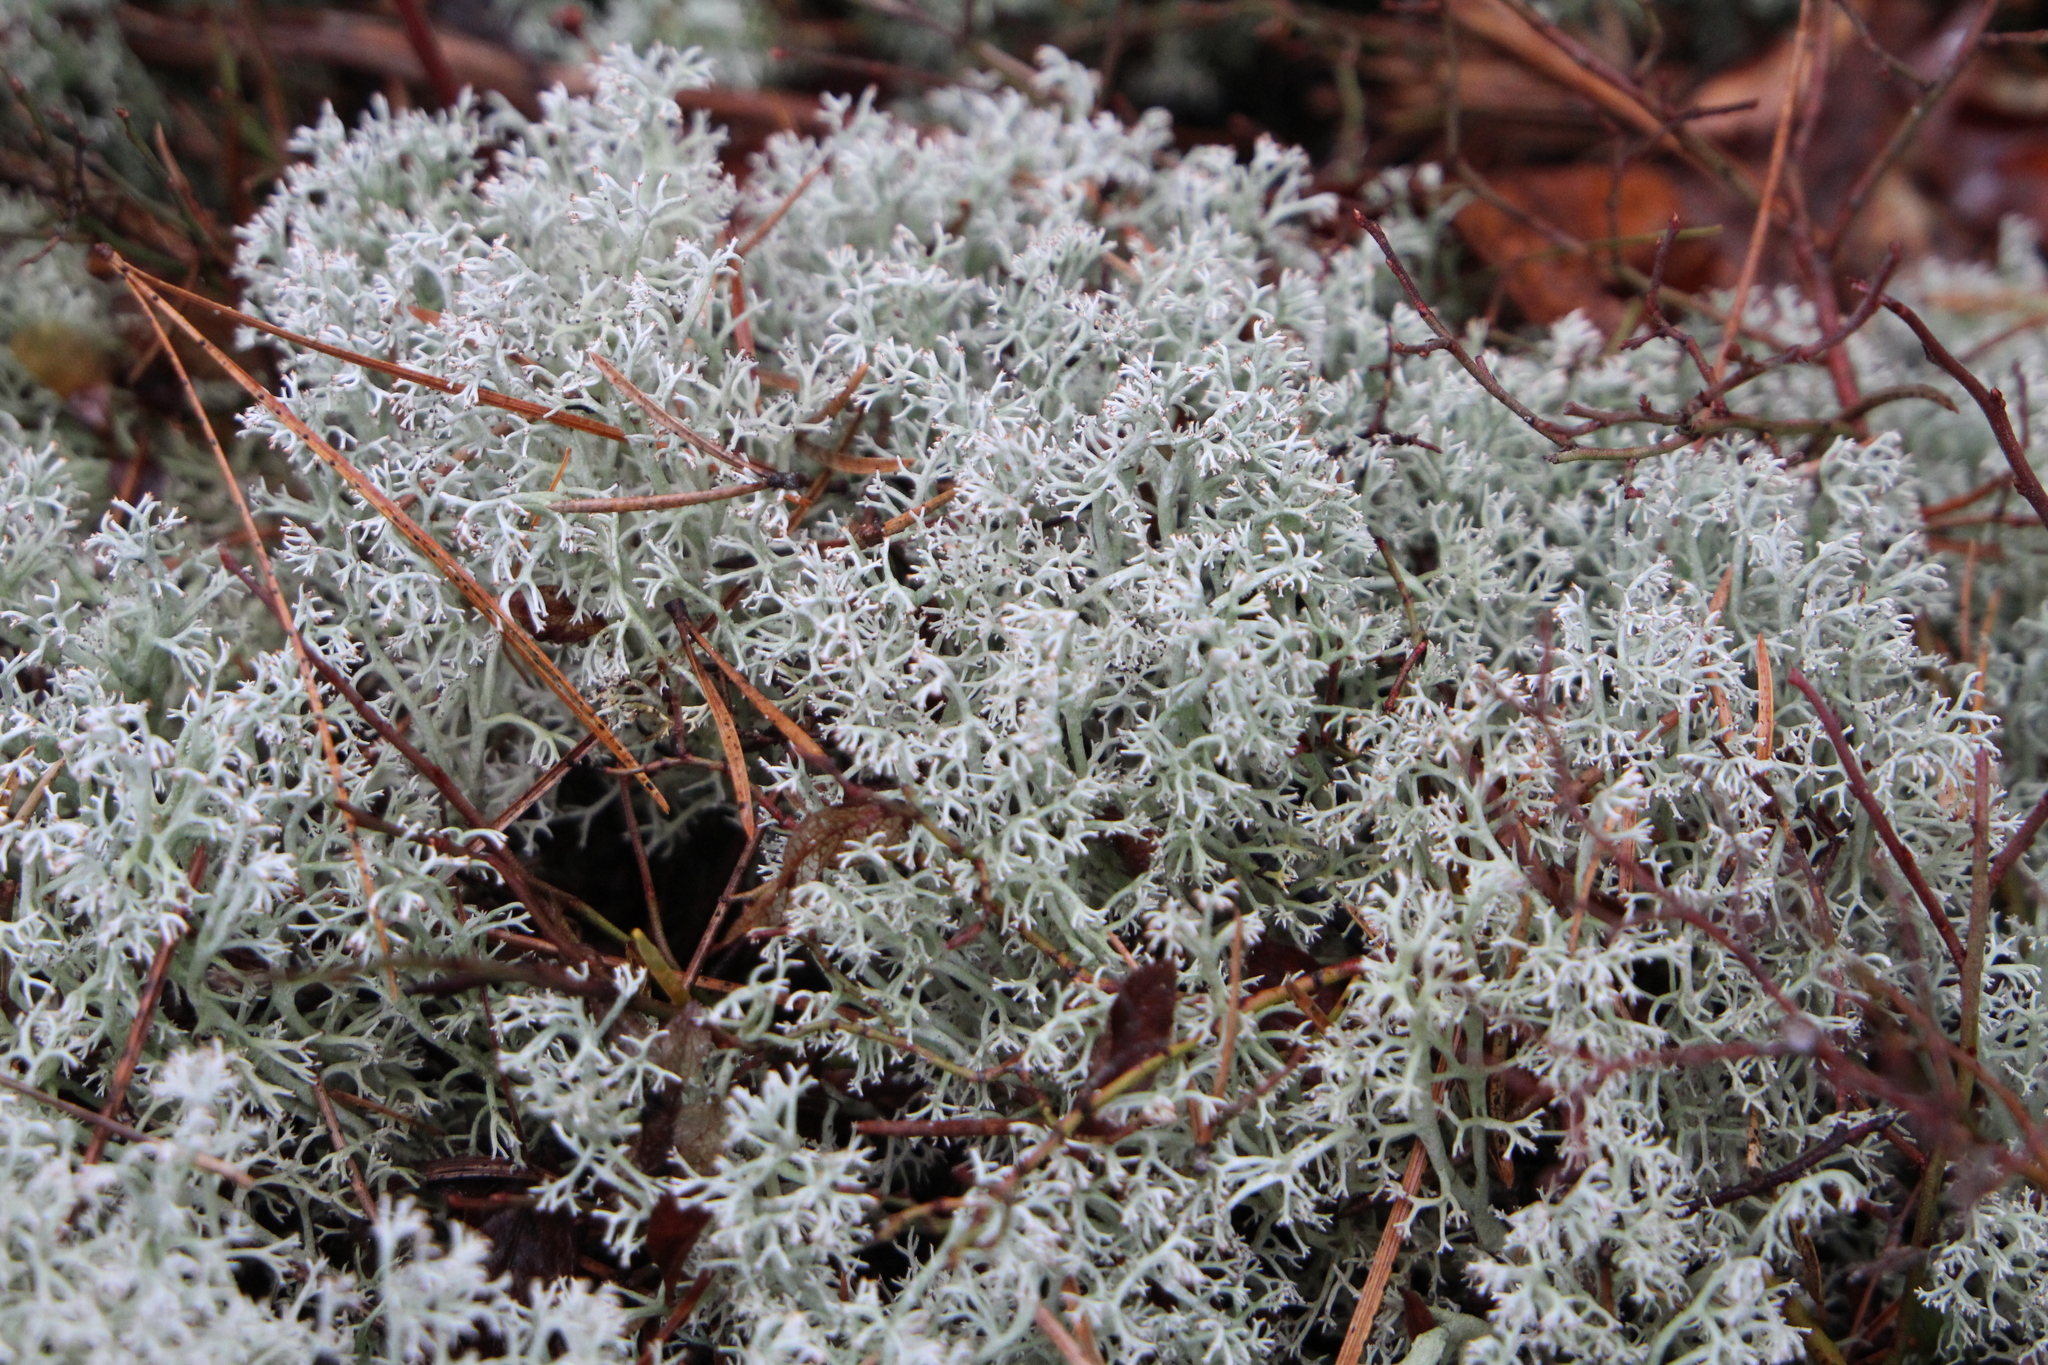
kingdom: Fungi
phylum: Ascomycota
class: Lecanoromycetes
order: Lecanorales
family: Cladoniaceae
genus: Cladonia
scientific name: Cladonia rangiferina
